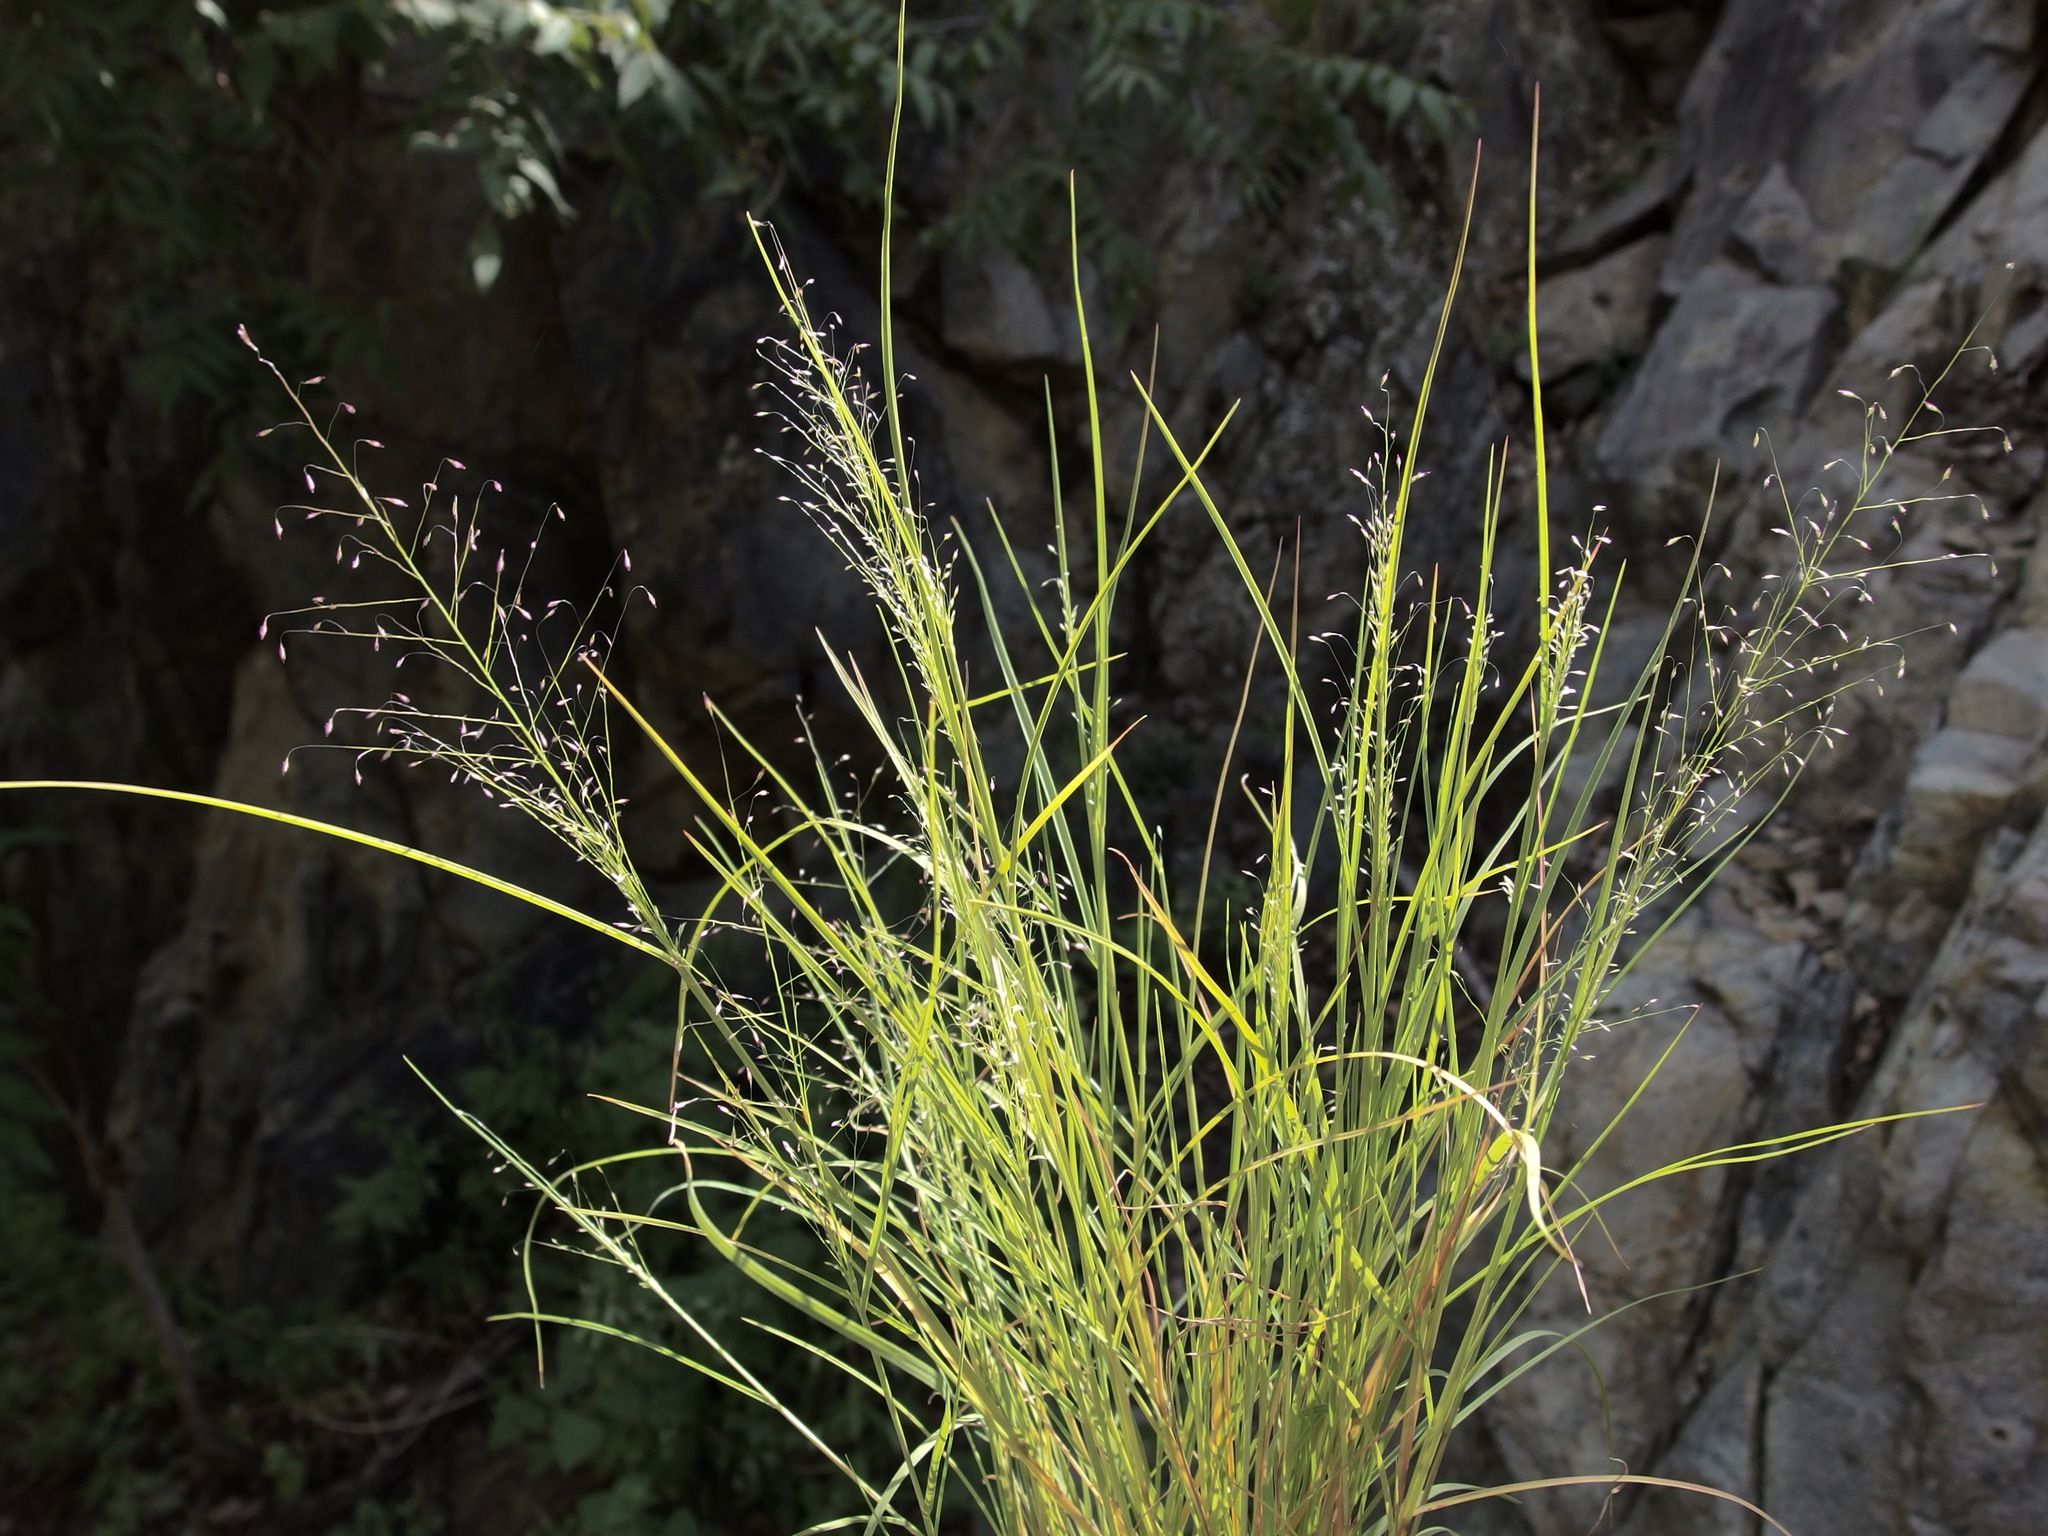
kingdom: Plantae
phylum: Tracheophyta
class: Liliopsida
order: Poales
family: Poaceae
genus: Muhlenbergia
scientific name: Muhlenbergia minutissima
